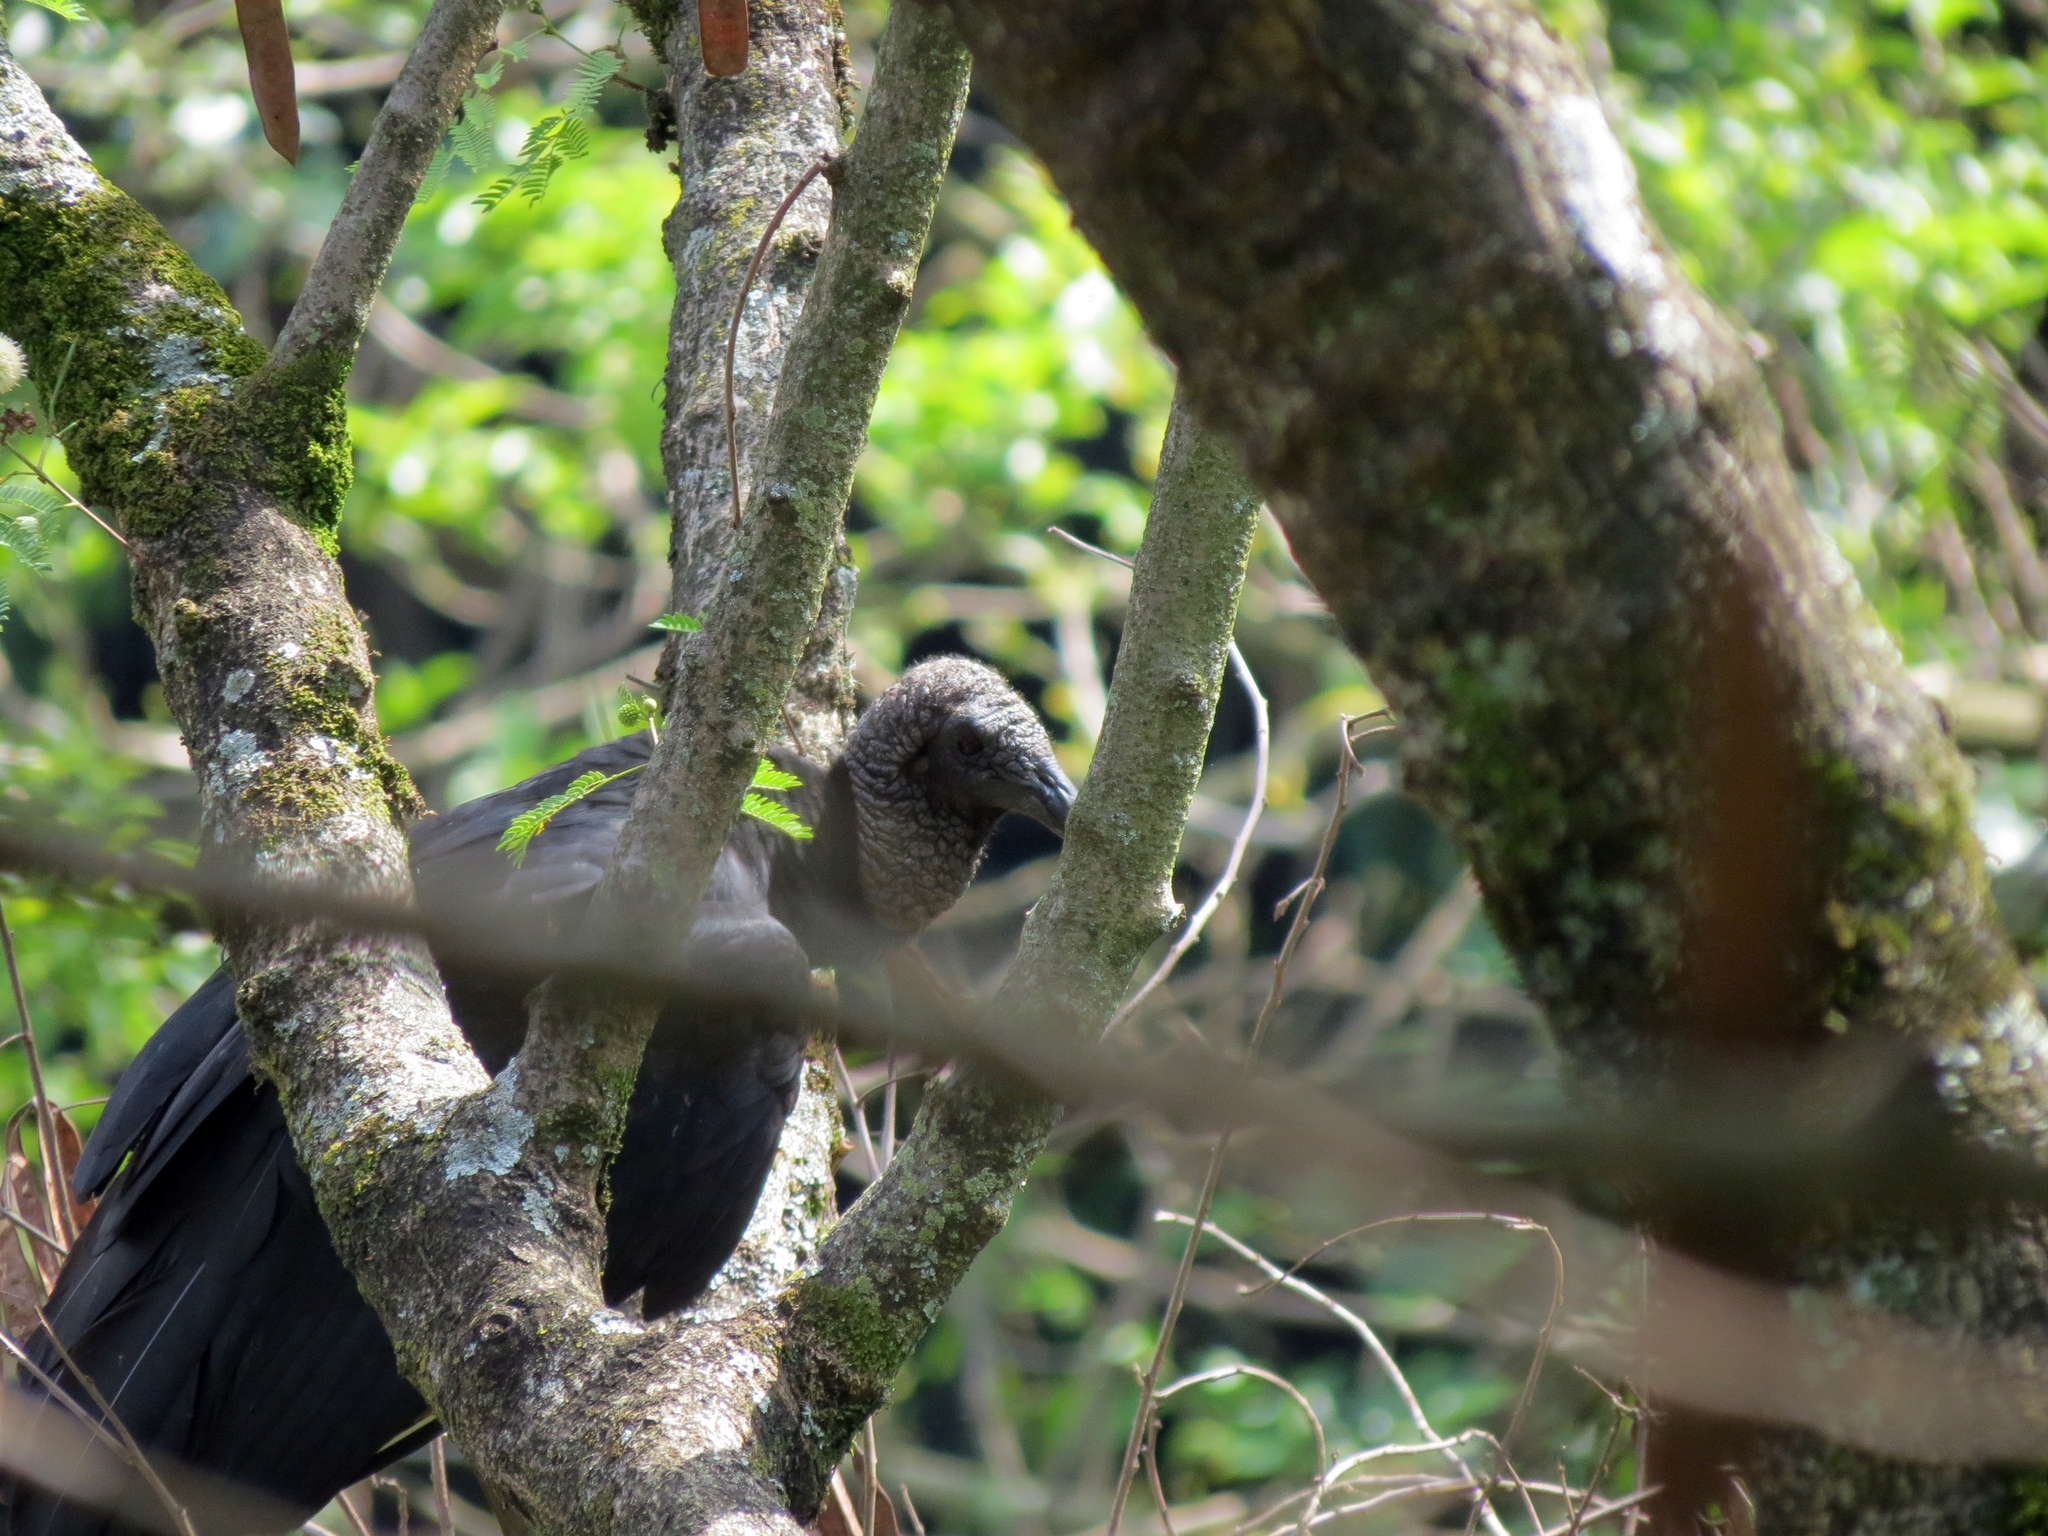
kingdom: Animalia
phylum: Chordata
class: Aves
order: Accipitriformes
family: Cathartidae
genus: Coragyps
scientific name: Coragyps atratus
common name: Black vulture
